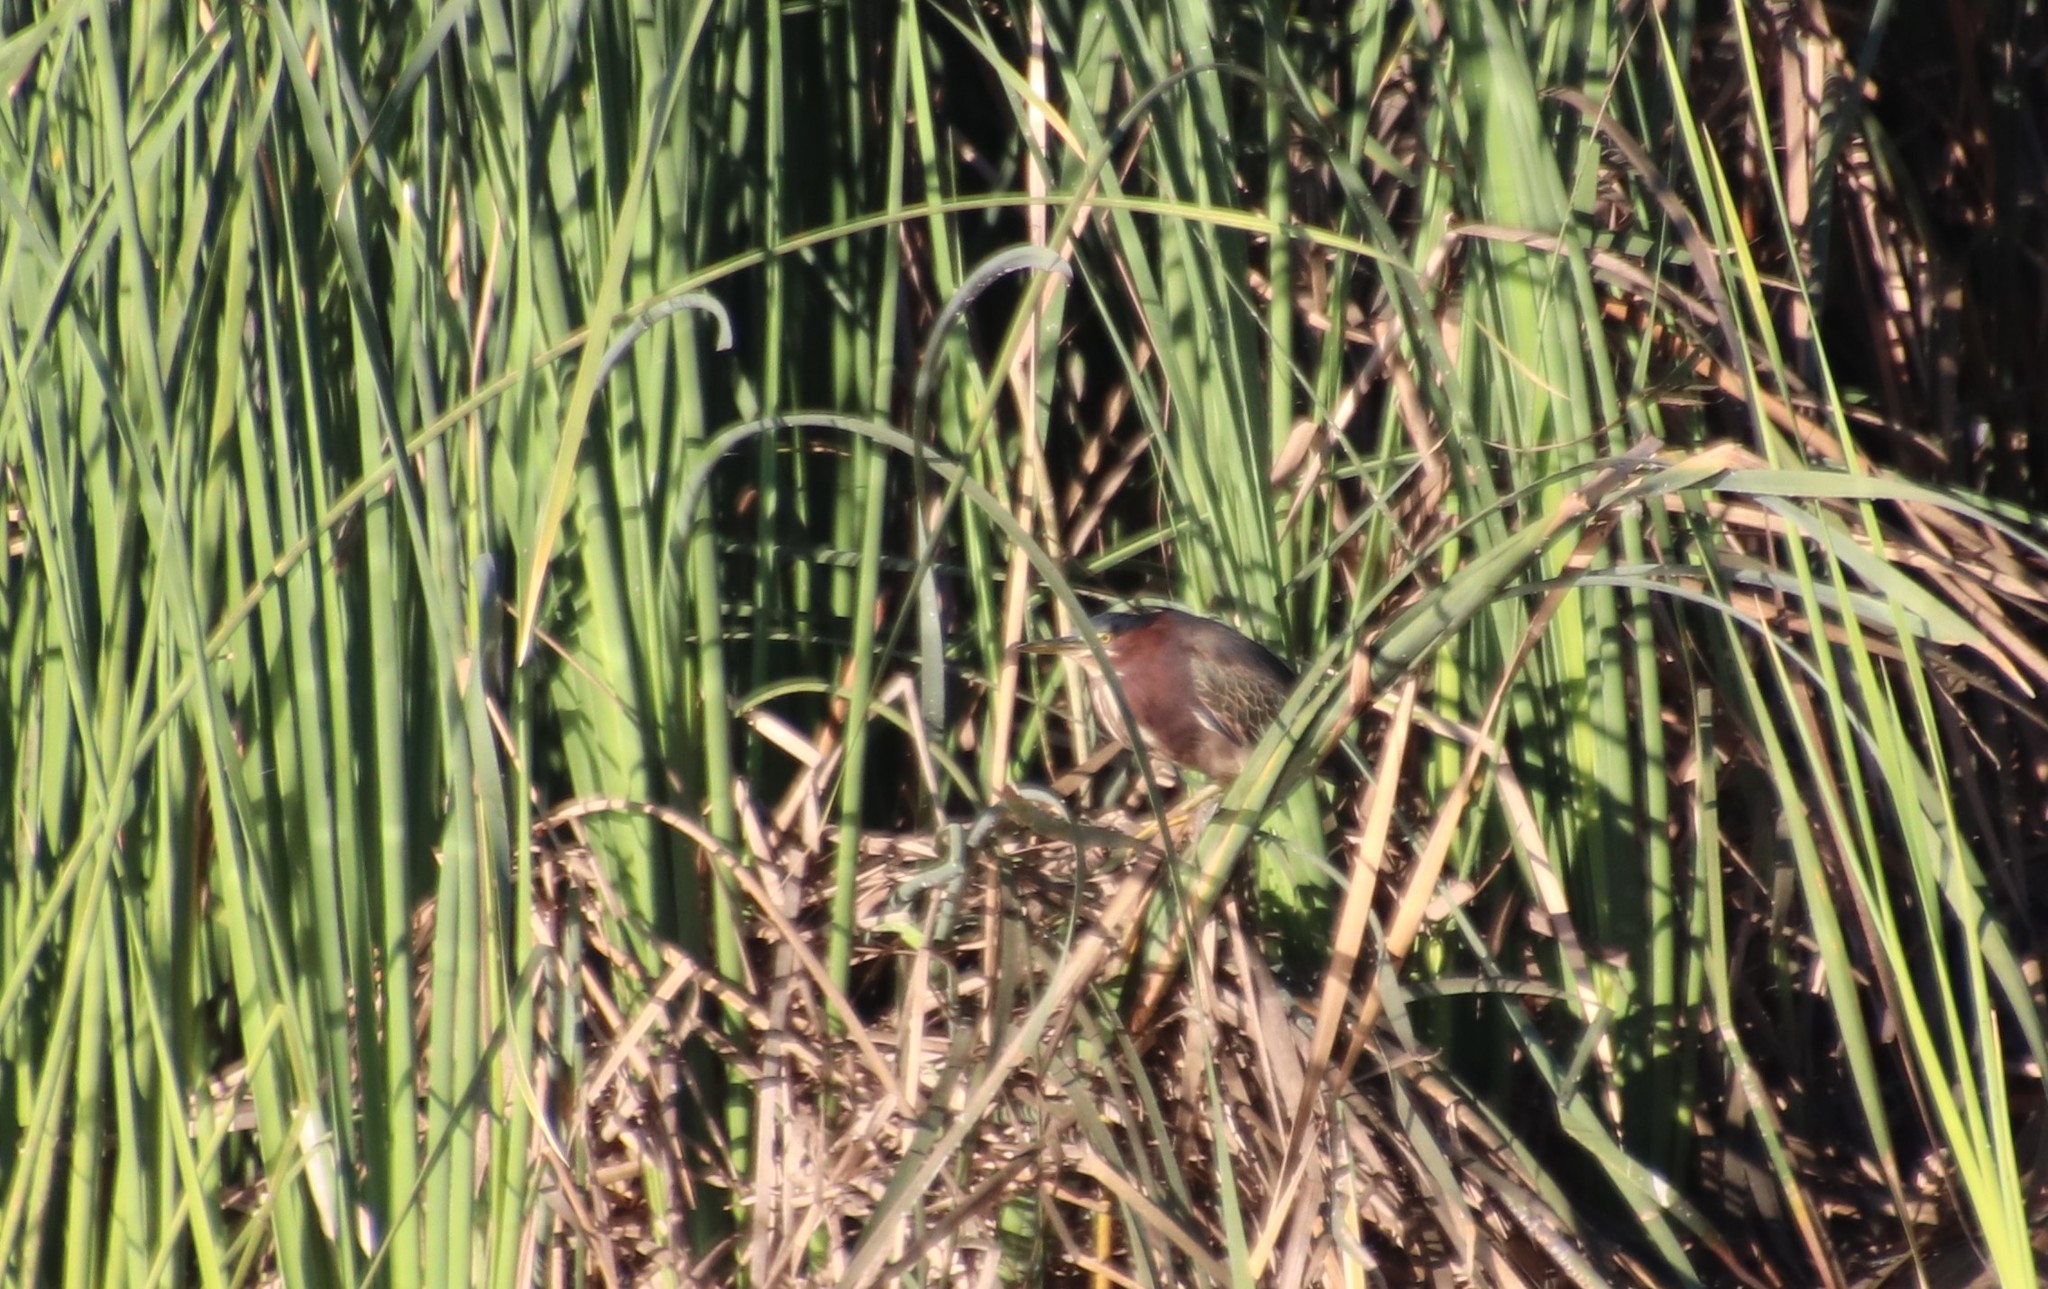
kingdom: Animalia
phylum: Chordata
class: Aves
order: Pelecaniformes
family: Ardeidae
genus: Butorides
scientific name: Butorides virescens
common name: Green heron
